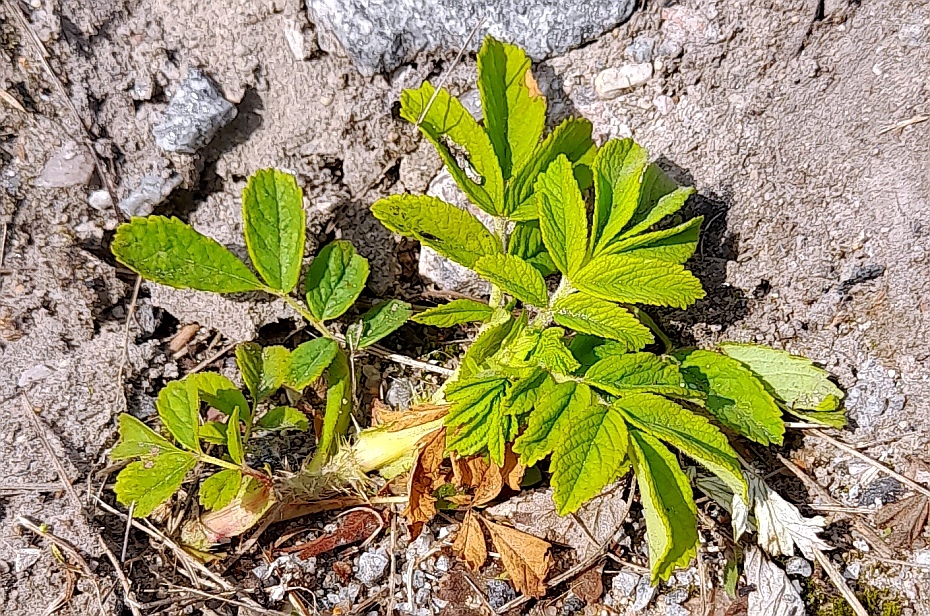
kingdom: Plantae
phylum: Tracheophyta
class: Magnoliopsida
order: Rosales
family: Rosaceae
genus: Rosa
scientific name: Rosa rugosa
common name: Japanese rose
